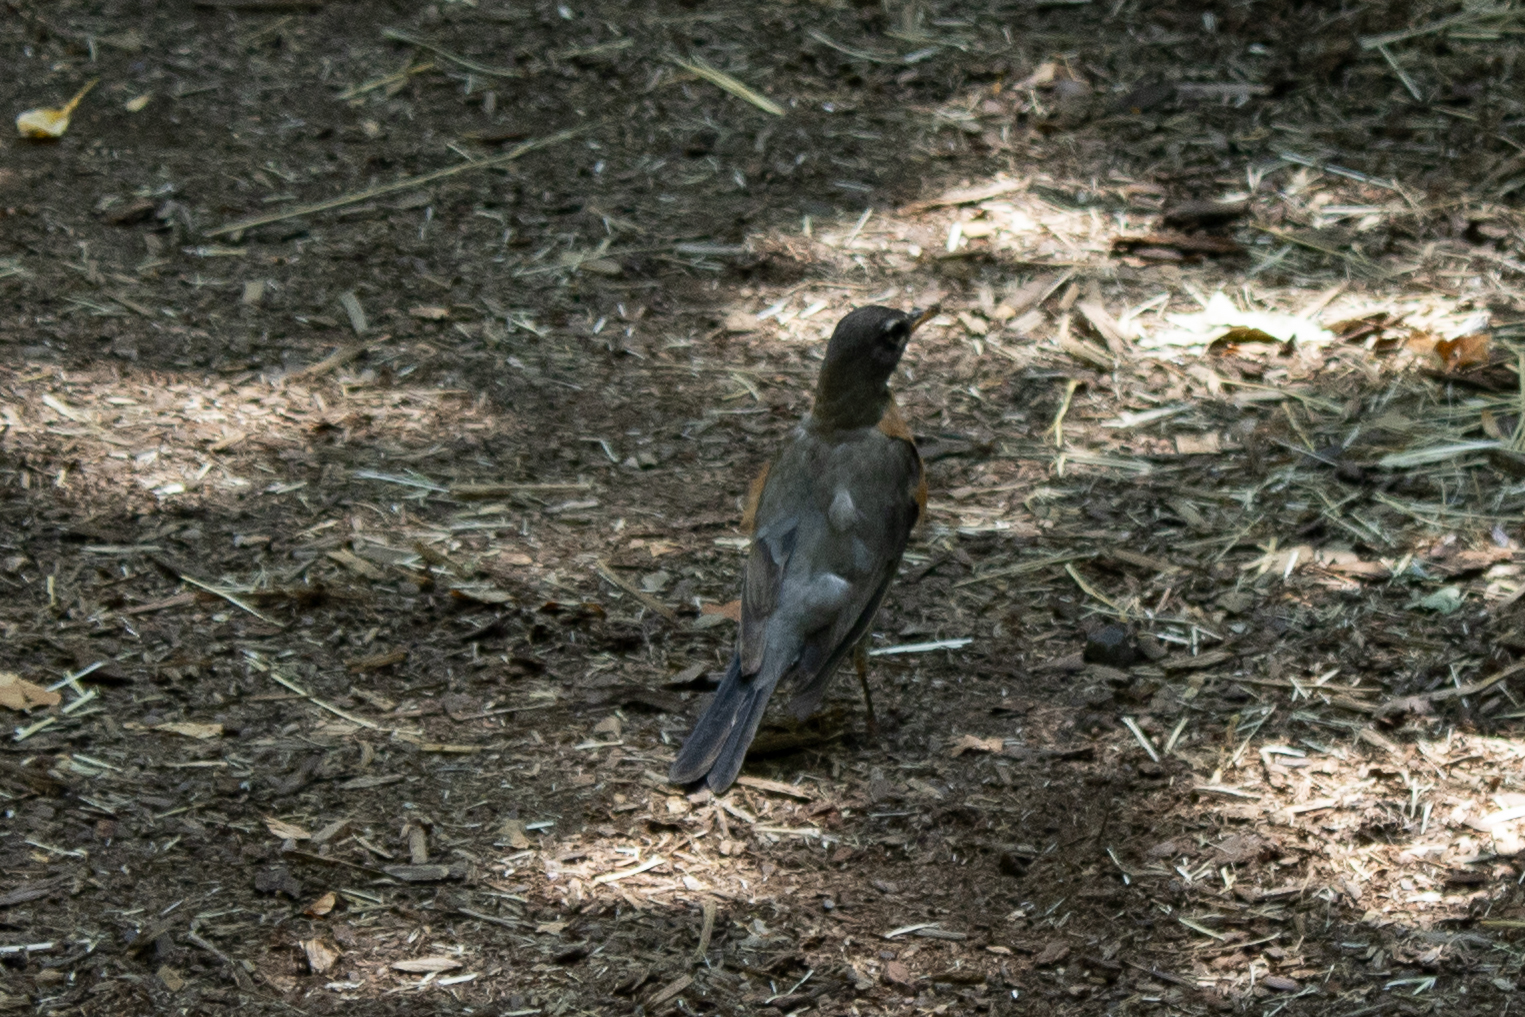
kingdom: Animalia
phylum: Chordata
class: Aves
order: Passeriformes
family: Turdidae
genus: Turdus
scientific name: Turdus migratorius
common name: American robin
